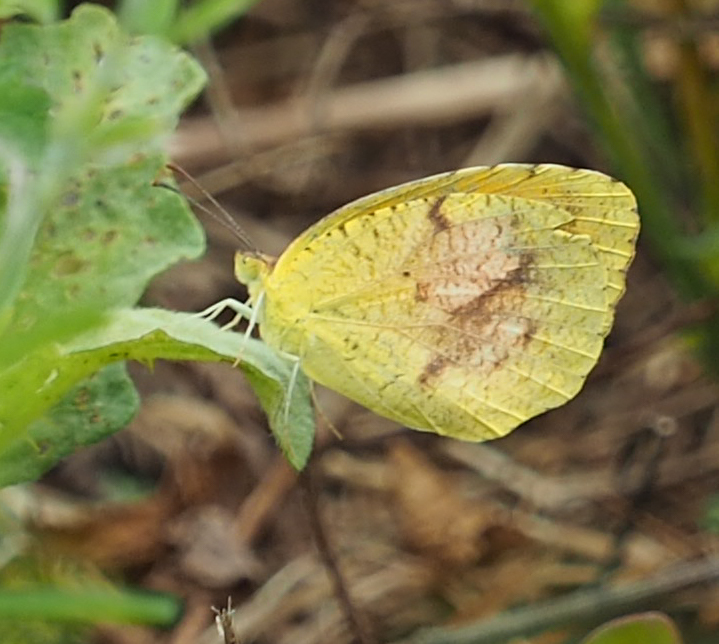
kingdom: Animalia
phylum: Arthropoda
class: Insecta
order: Lepidoptera
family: Pieridae
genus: Abaeis
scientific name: Abaeis nicippe
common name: Sleepy orange
